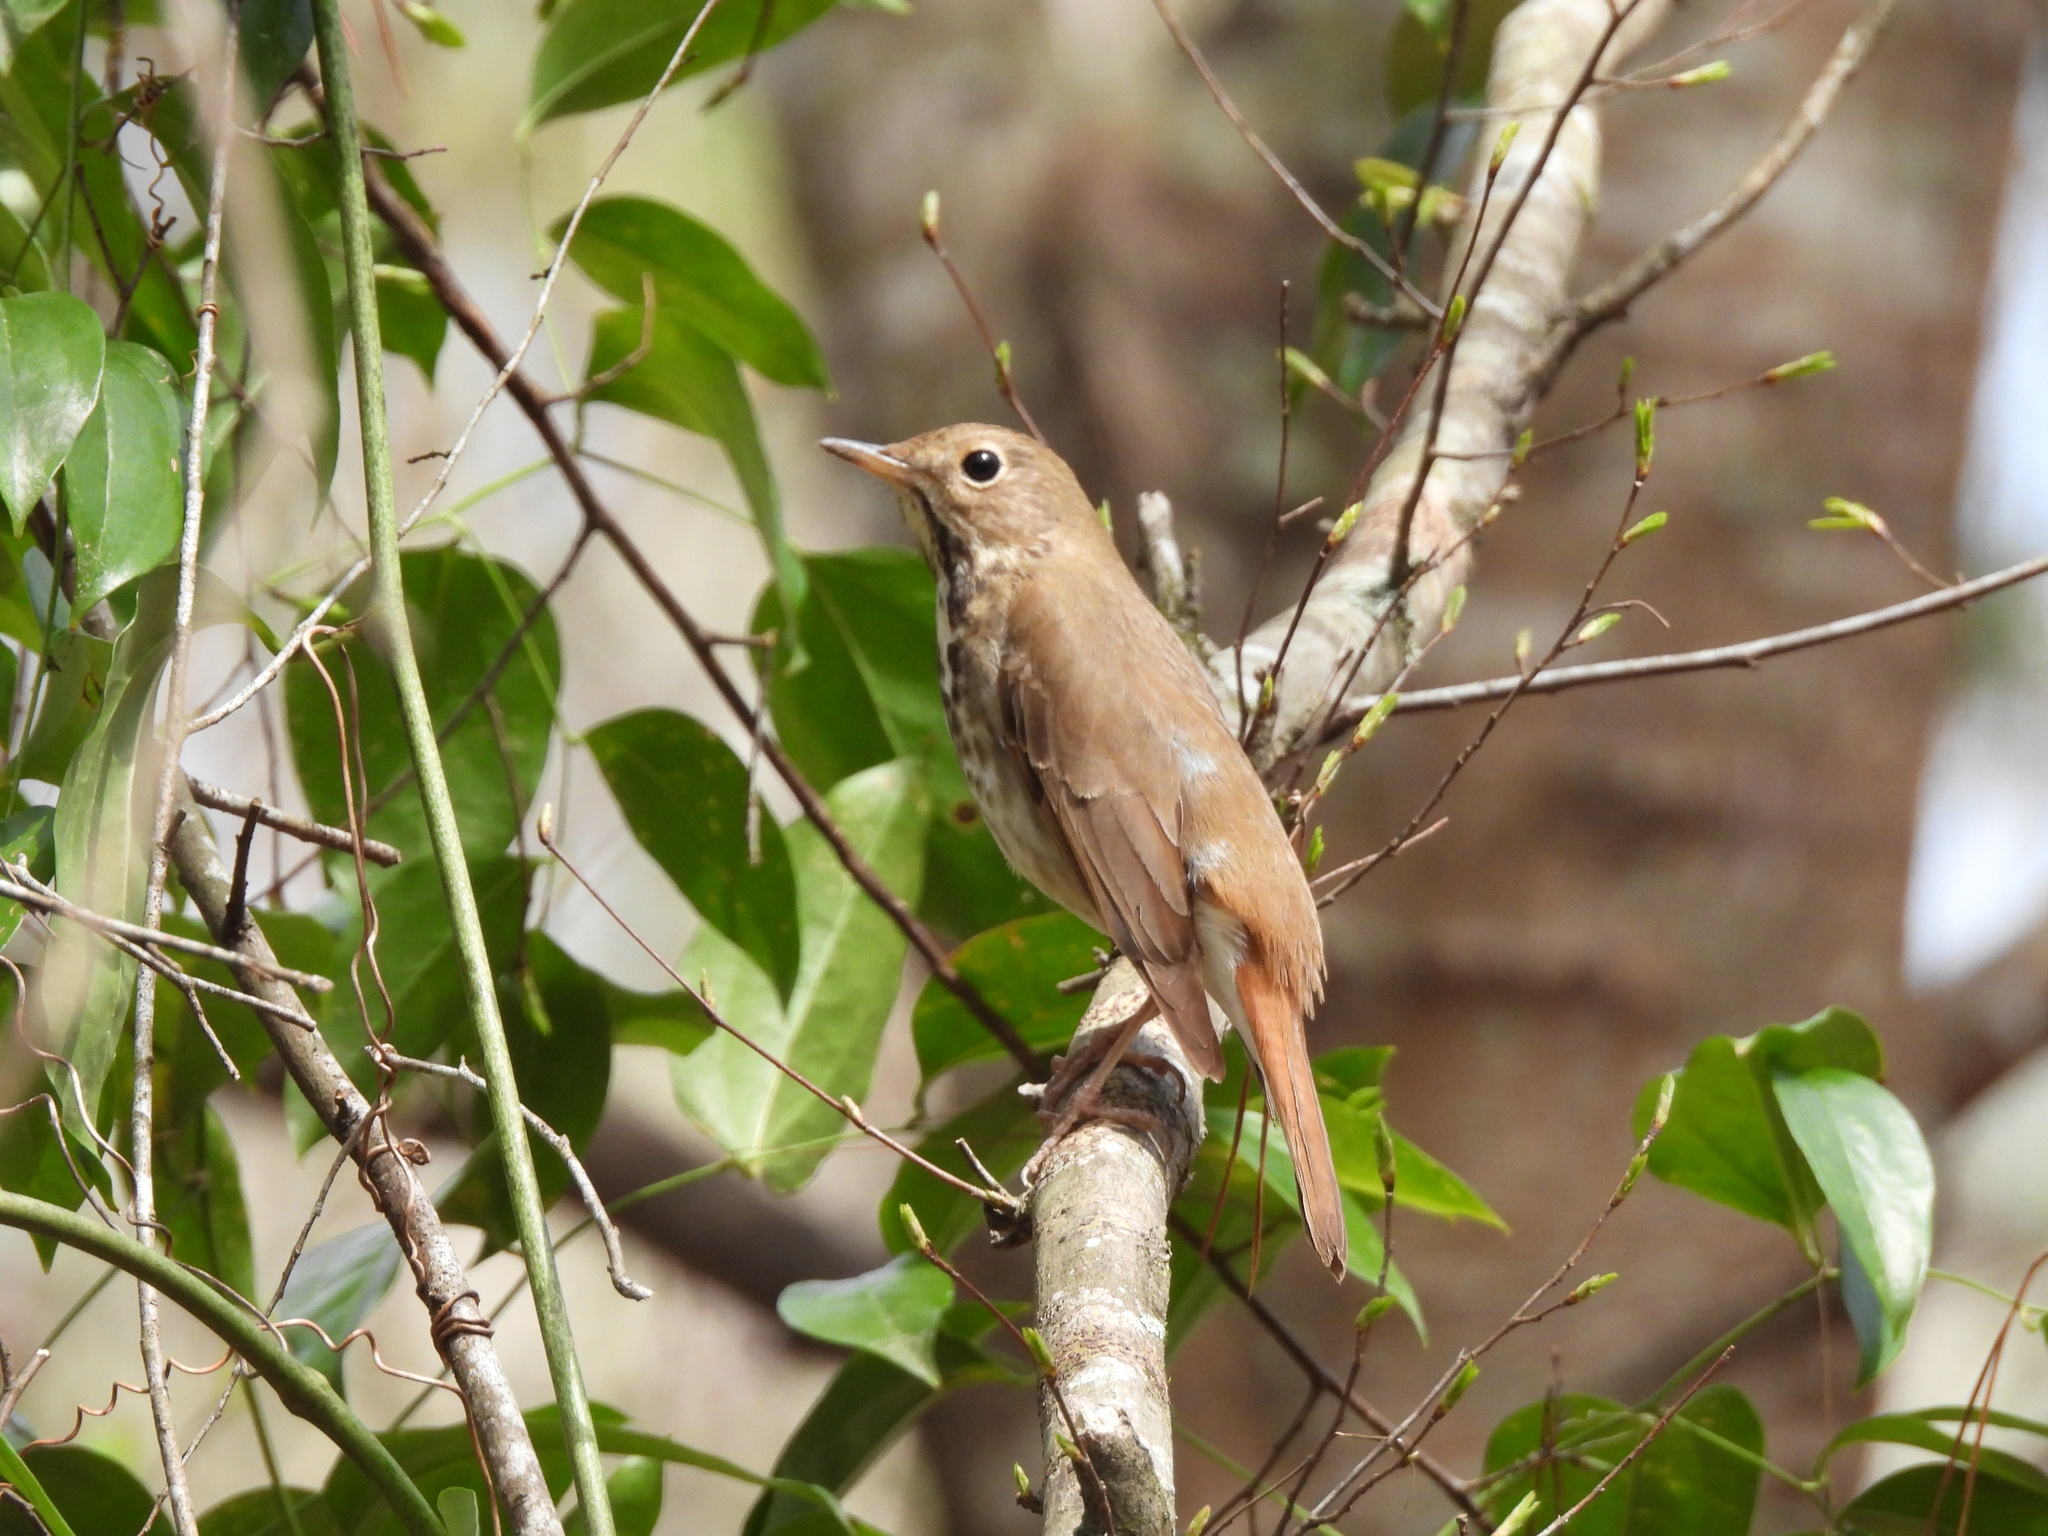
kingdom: Animalia
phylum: Chordata
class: Aves
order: Passeriformes
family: Turdidae
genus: Catharus
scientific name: Catharus guttatus
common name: Hermit thrush
